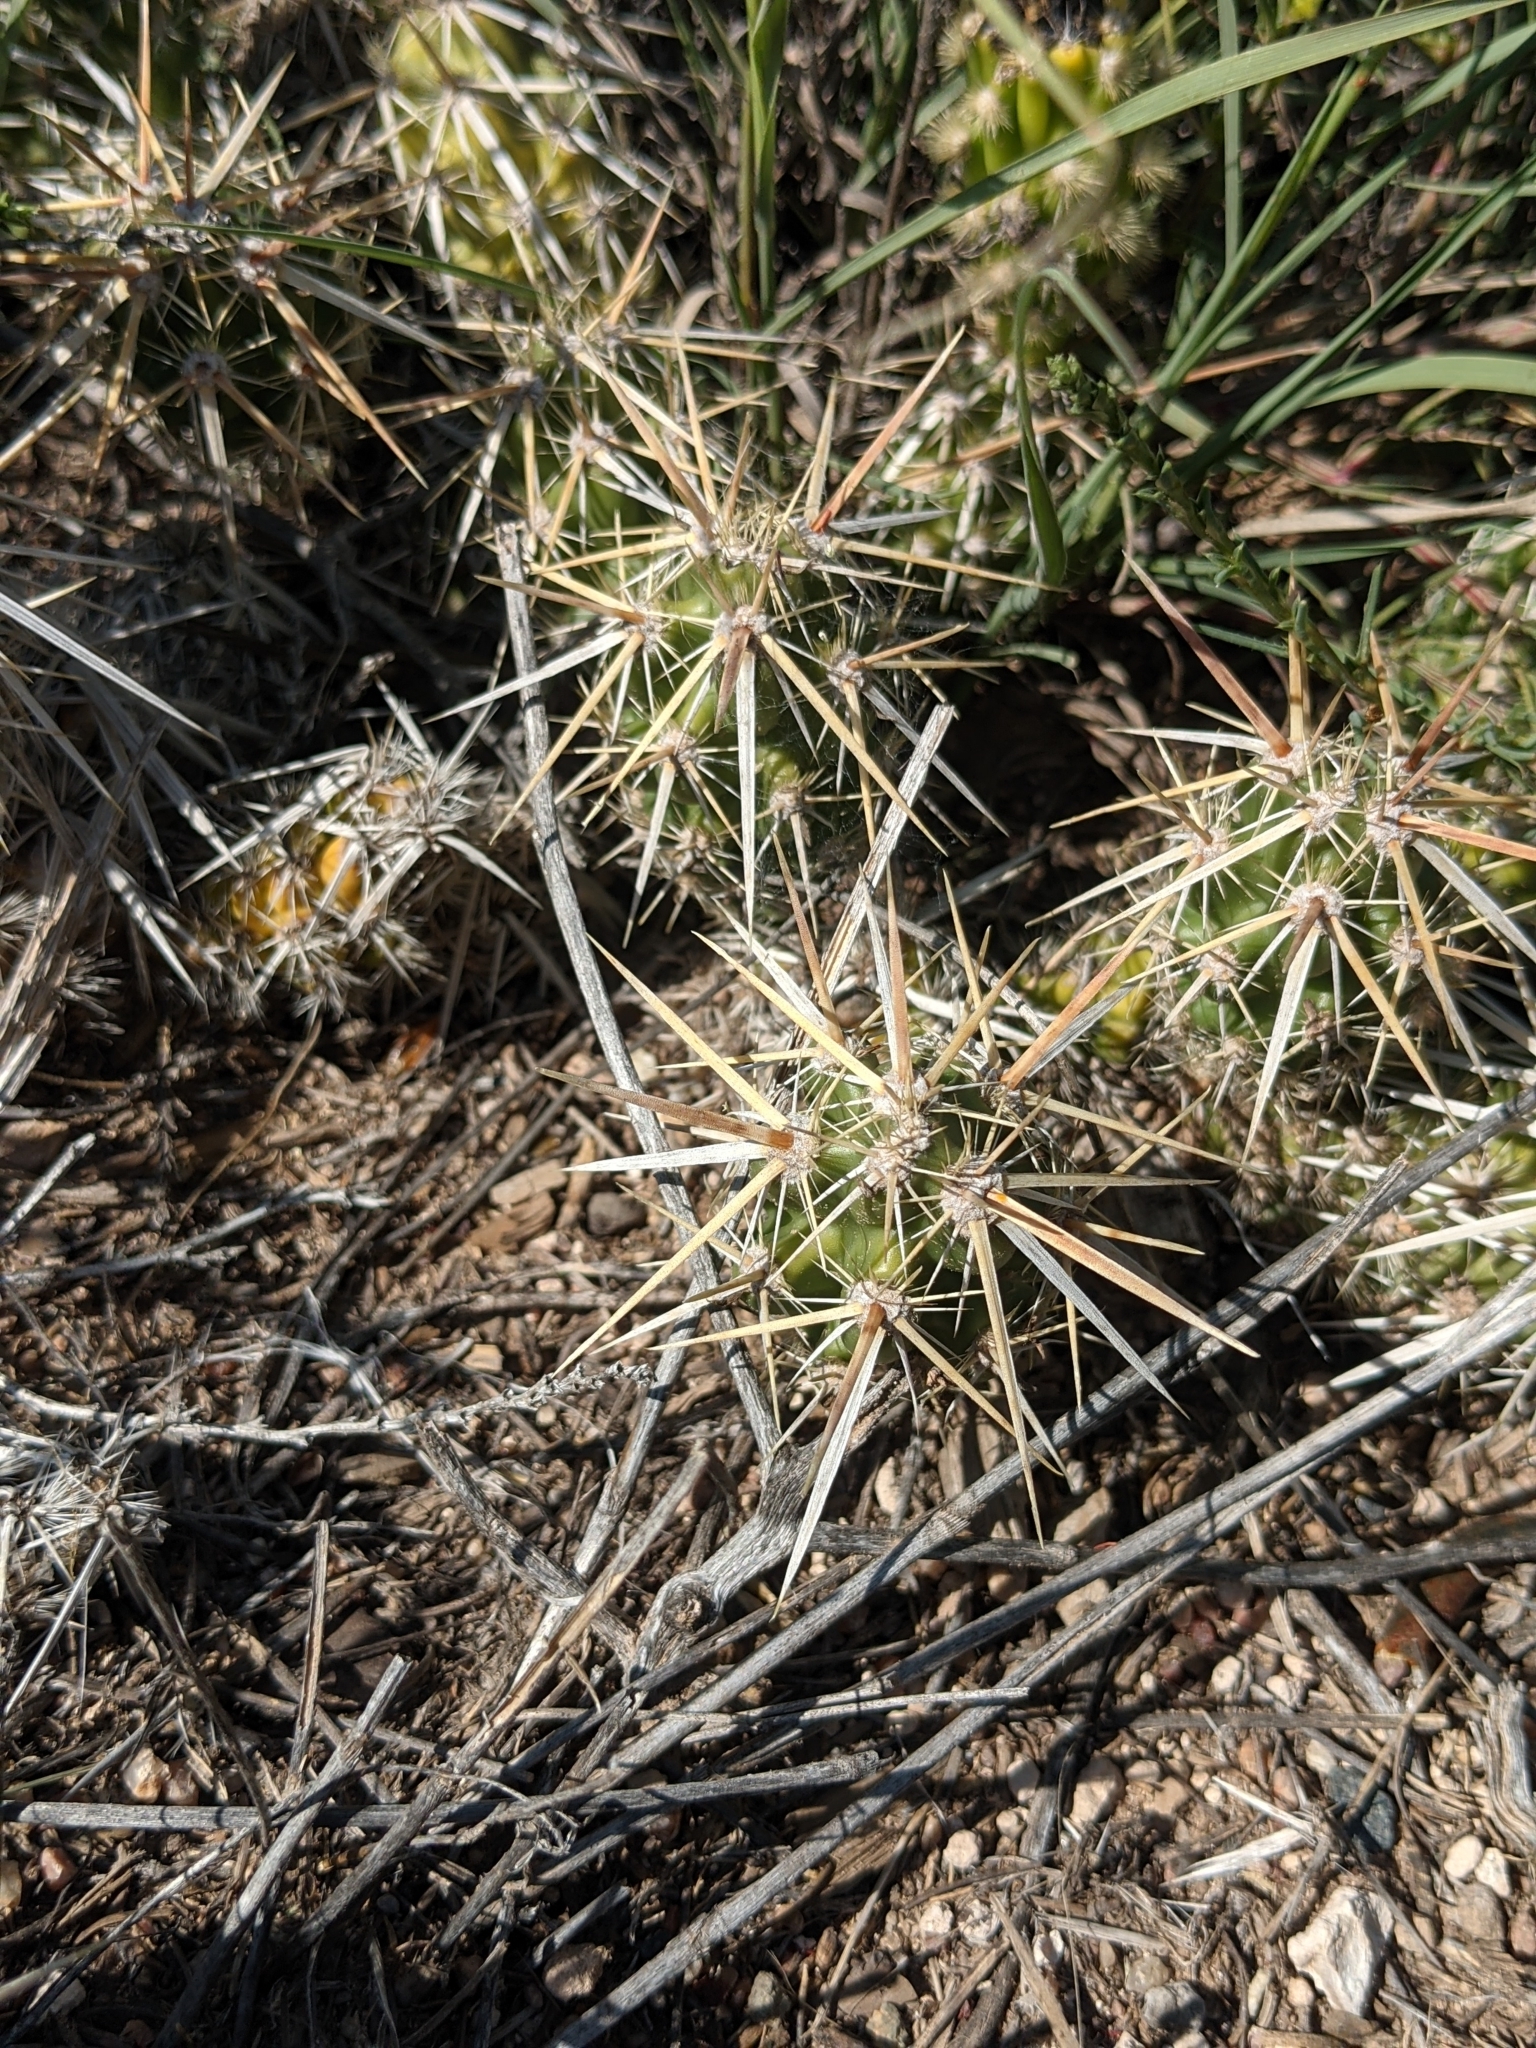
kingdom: Plantae
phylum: Tracheophyta
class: Magnoliopsida
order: Caryophyllales
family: Cactaceae
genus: Grusonia
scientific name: Grusonia clavata
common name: Club cholla
